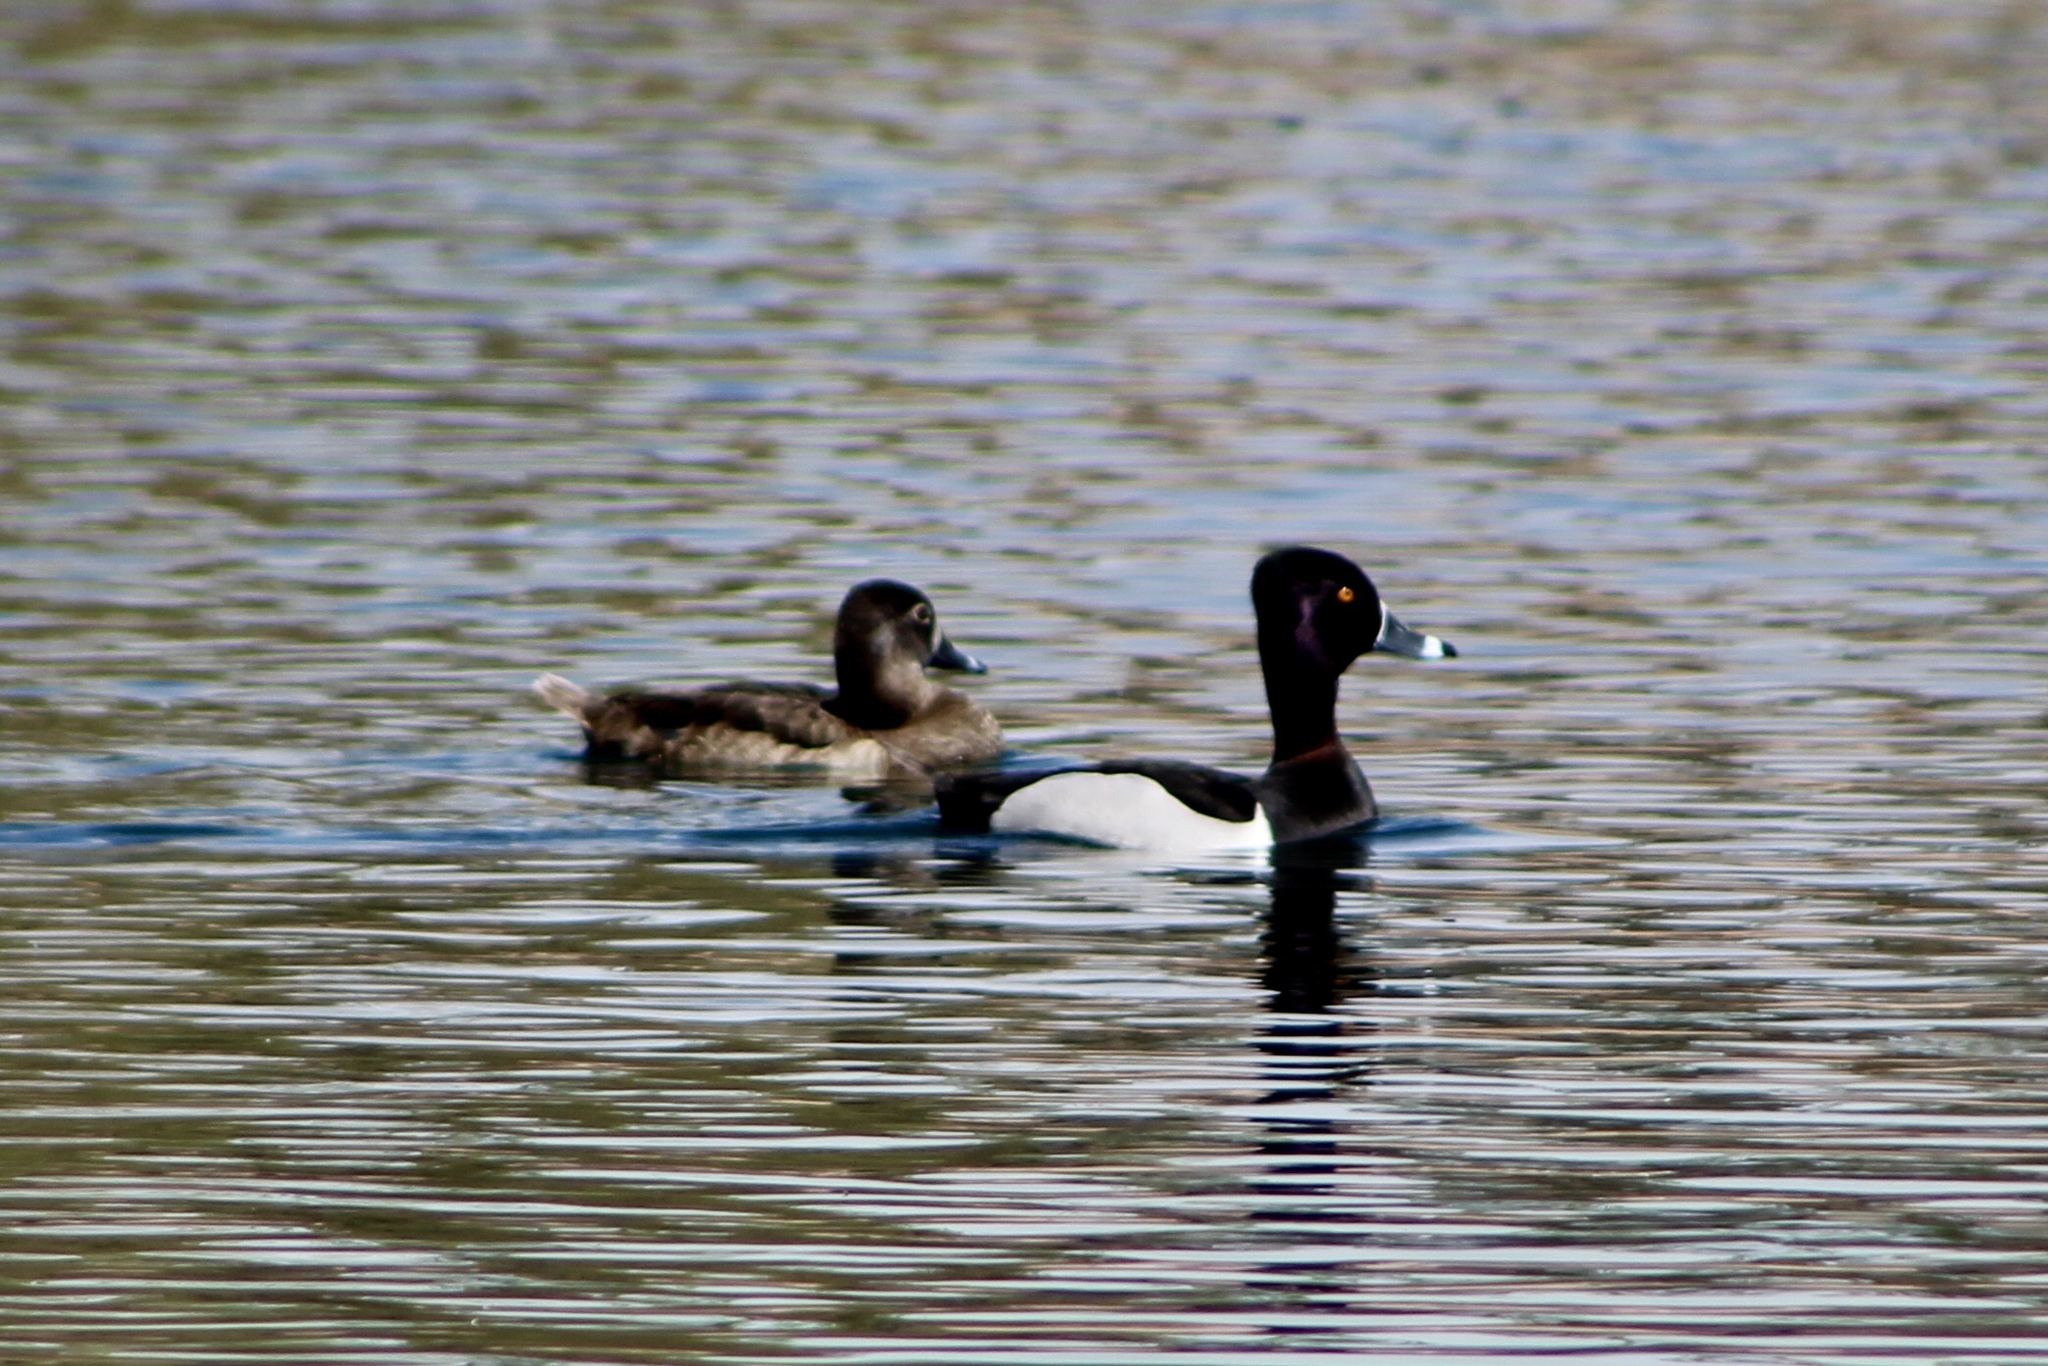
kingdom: Animalia
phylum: Chordata
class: Aves
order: Anseriformes
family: Anatidae
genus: Aythya
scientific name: Aythya collaris
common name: Ring-necked duck
